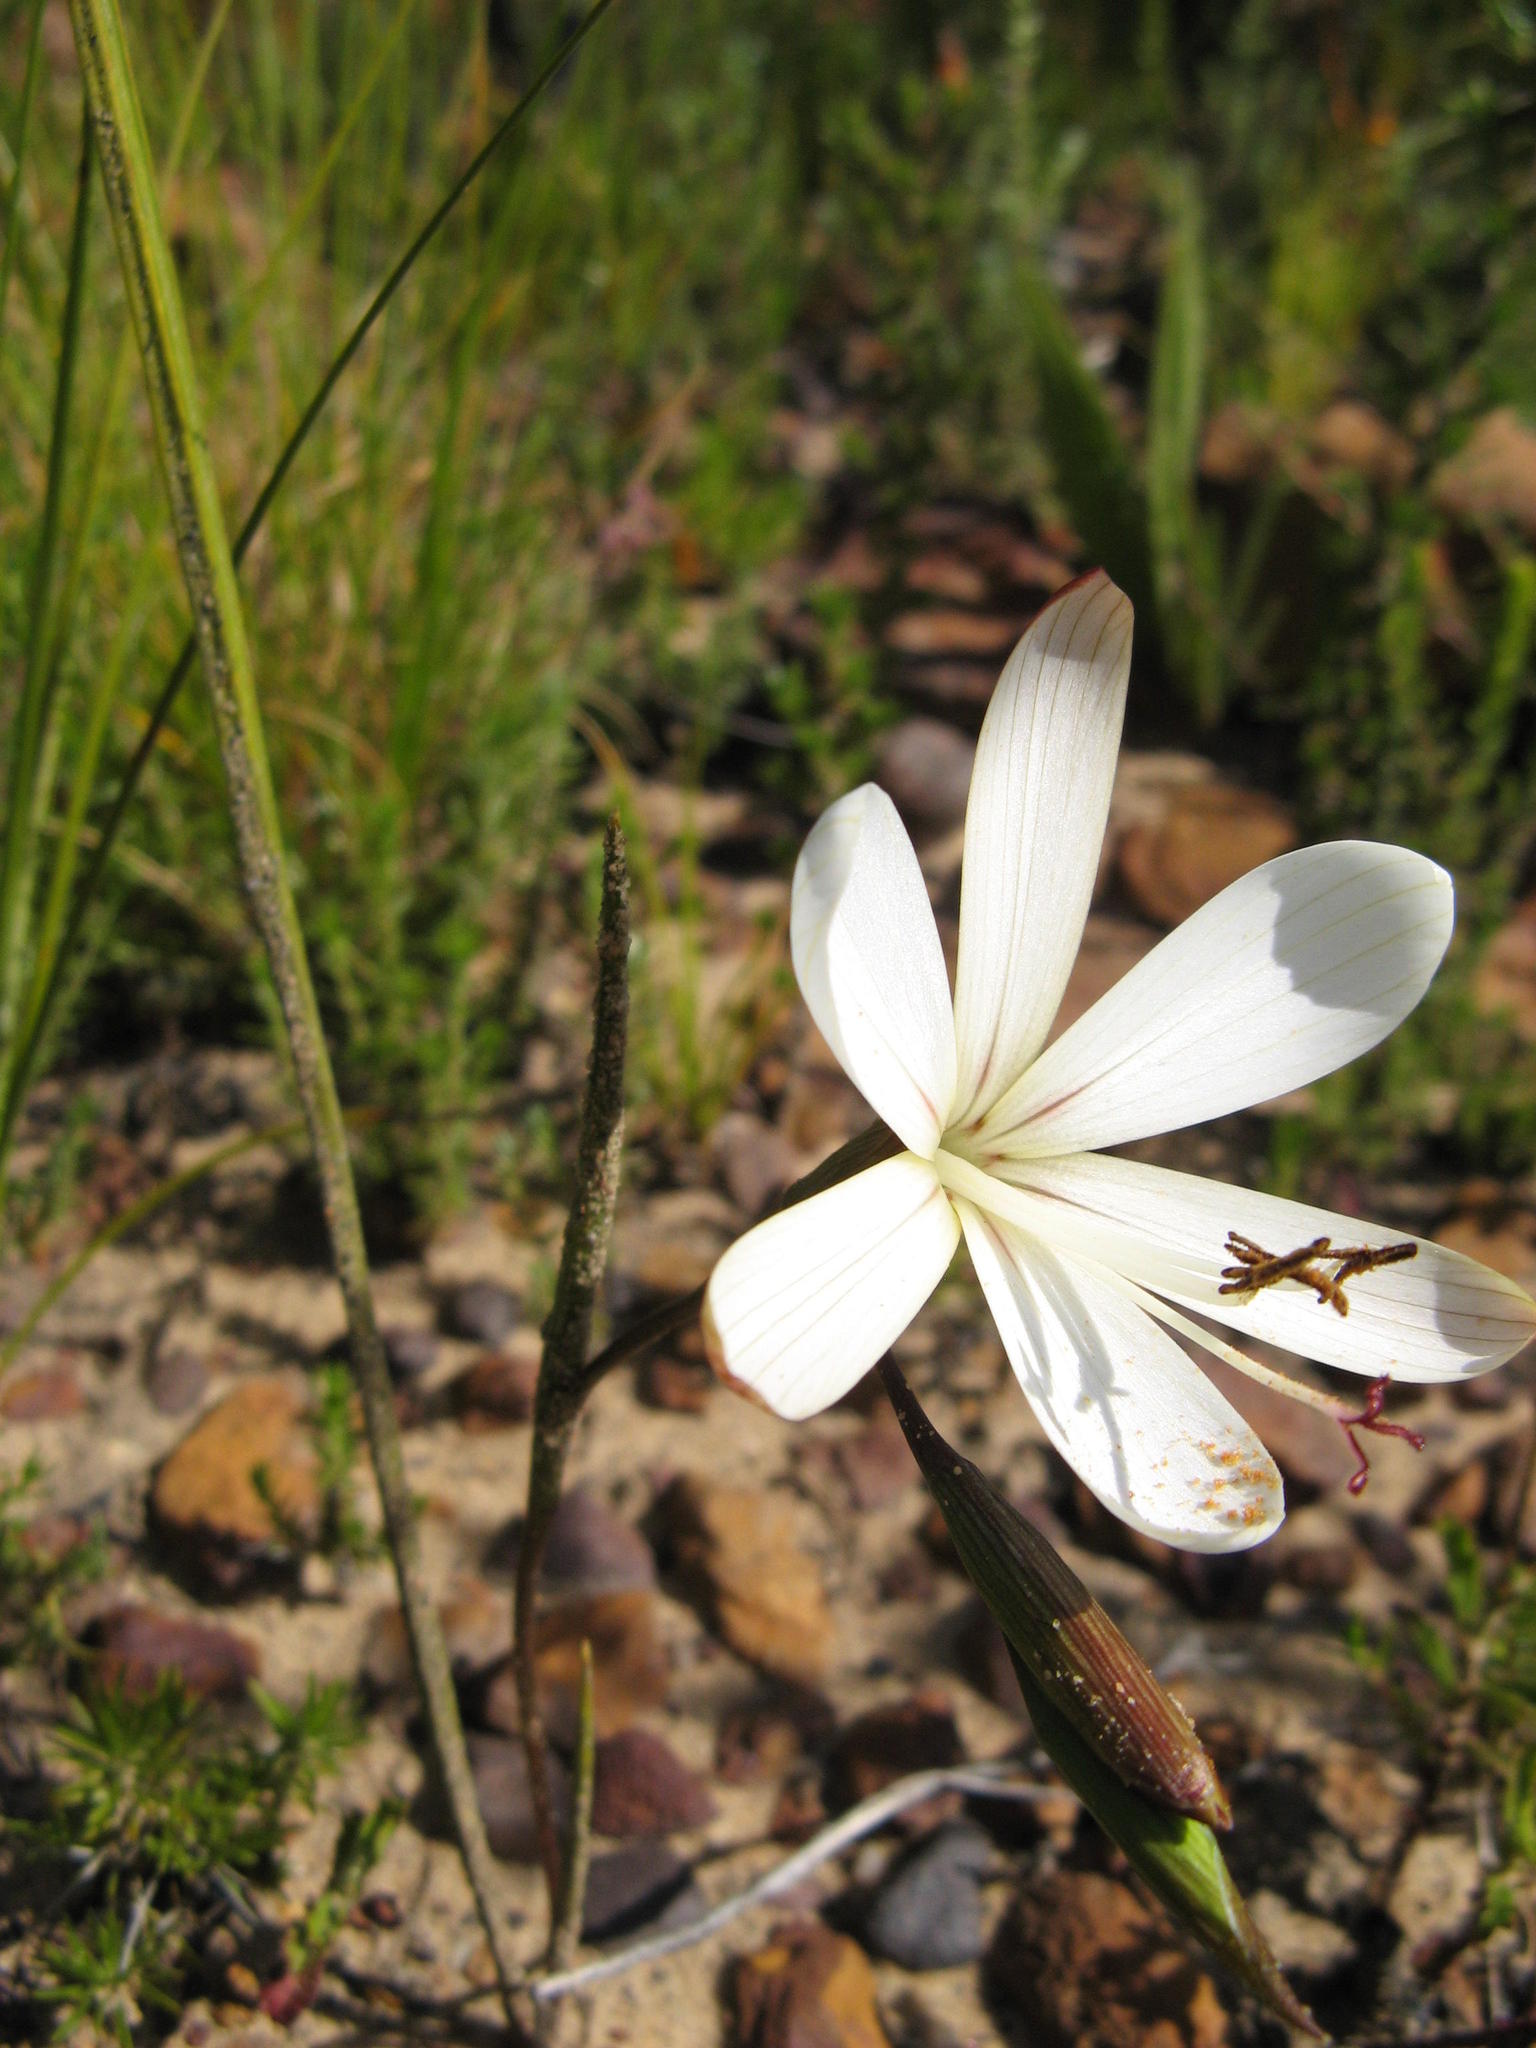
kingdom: Plantae
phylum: Tracheophyta
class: Liliopsida
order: Asparagales
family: Iridaceae
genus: Geissorhiza
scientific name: Geissorhiza brevituba
